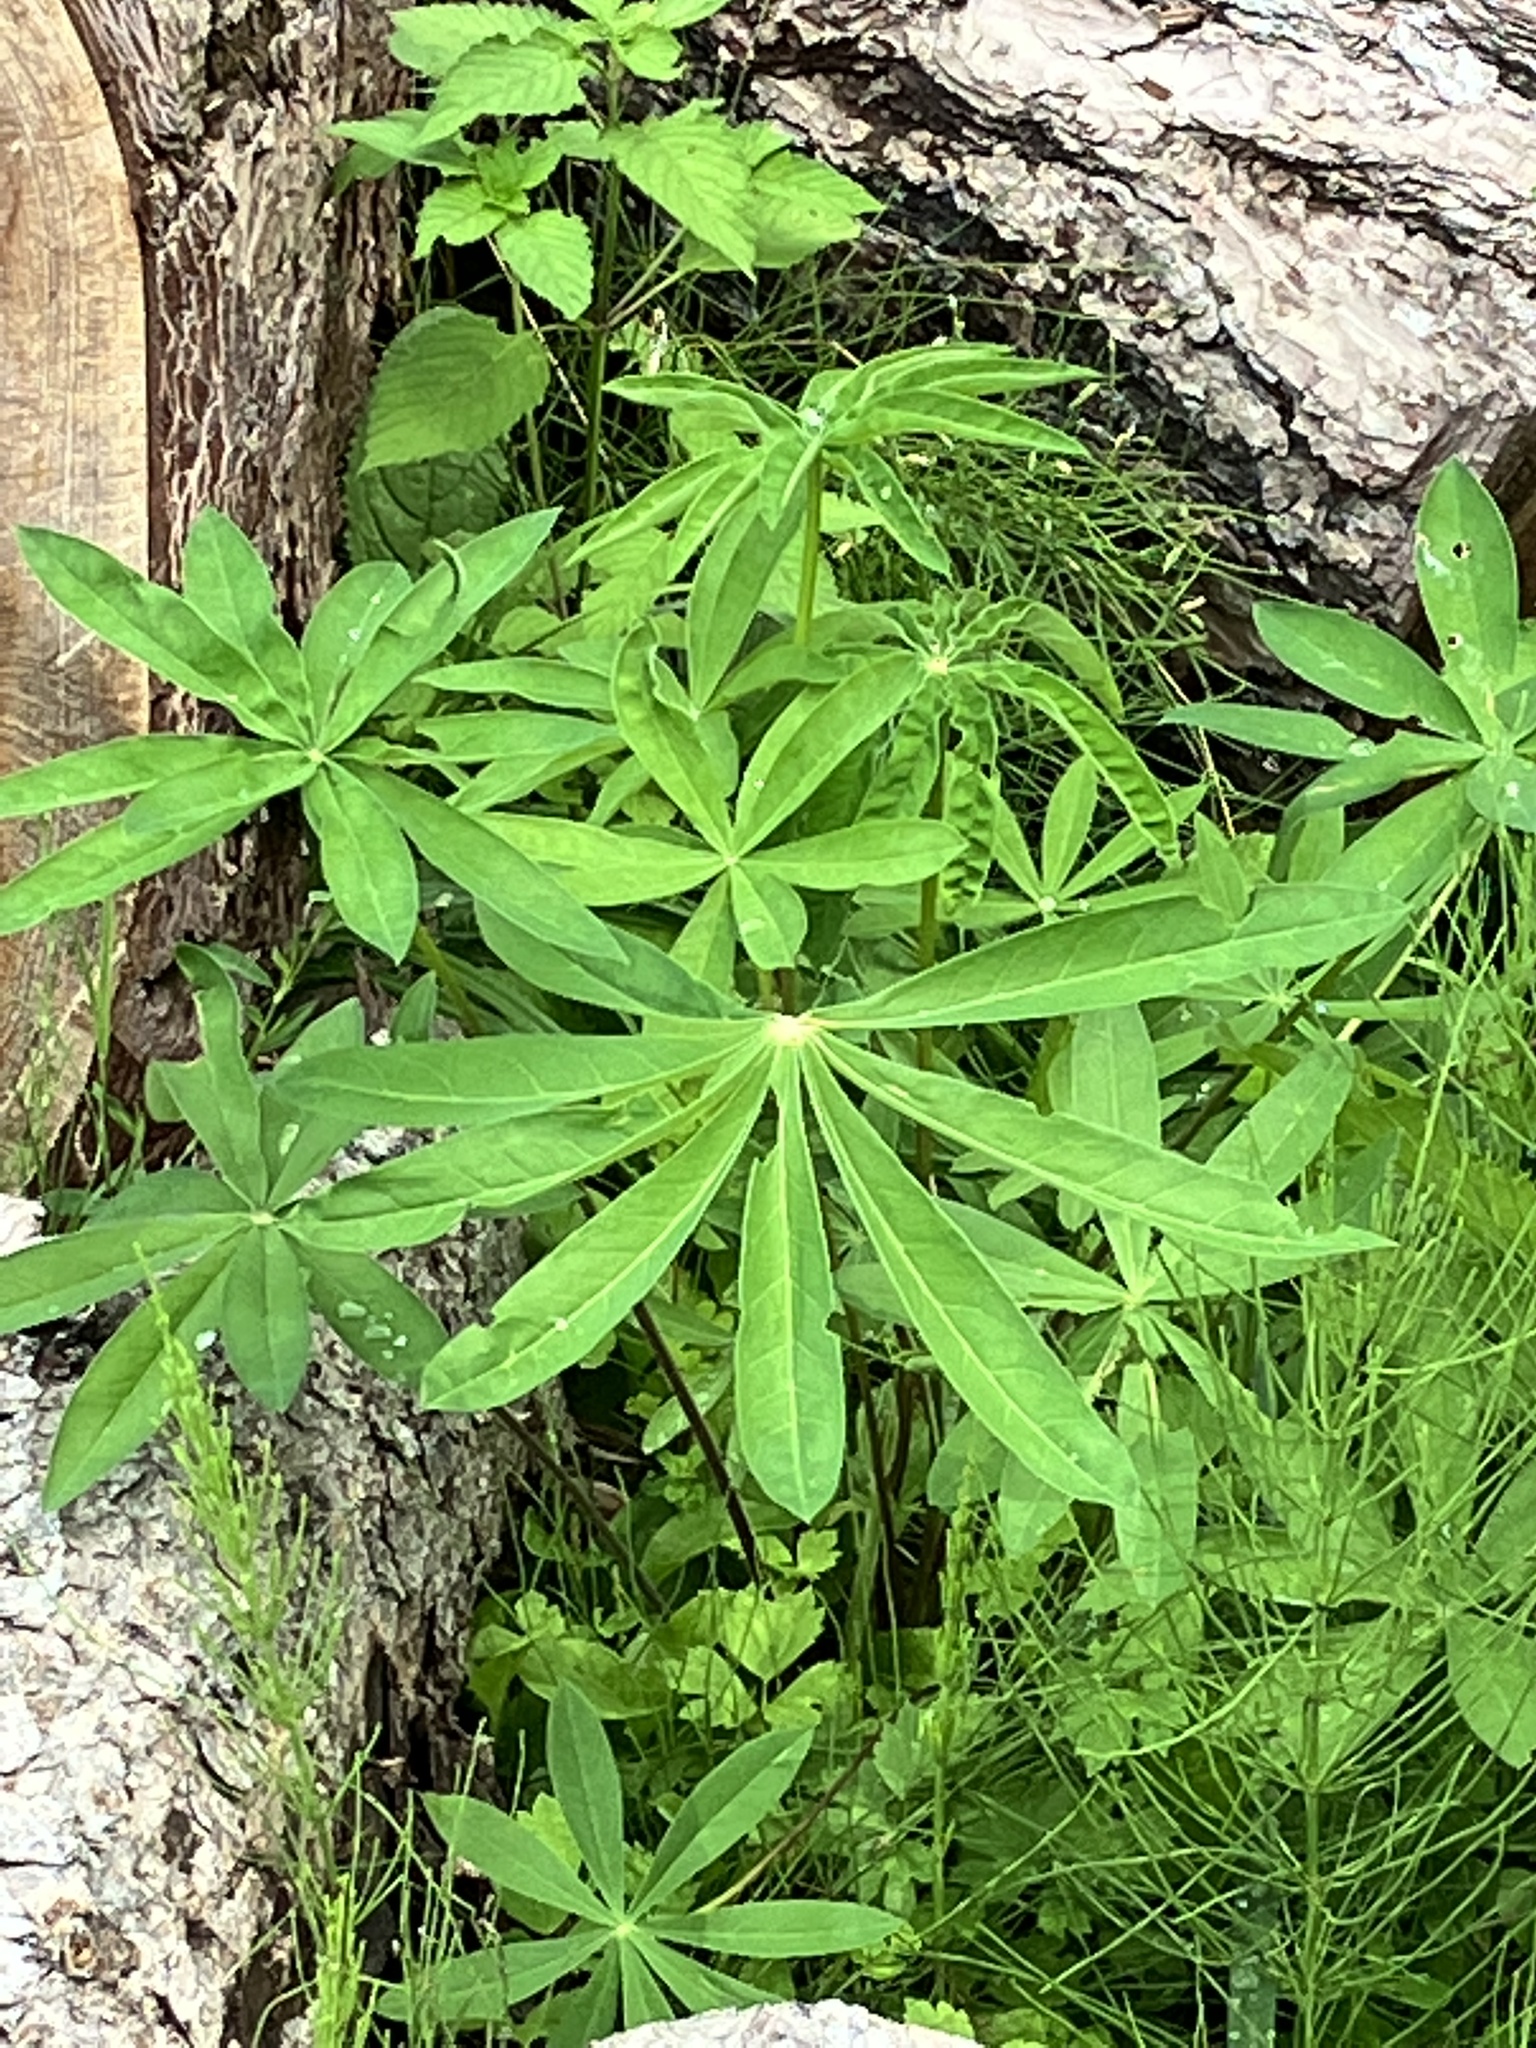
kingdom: Plantae
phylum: Tracheophyta
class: Magnoliopsida
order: Fabales
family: Fabaceae
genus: Lupinus
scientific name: Lupinus polyphyllus
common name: Garden lupin
